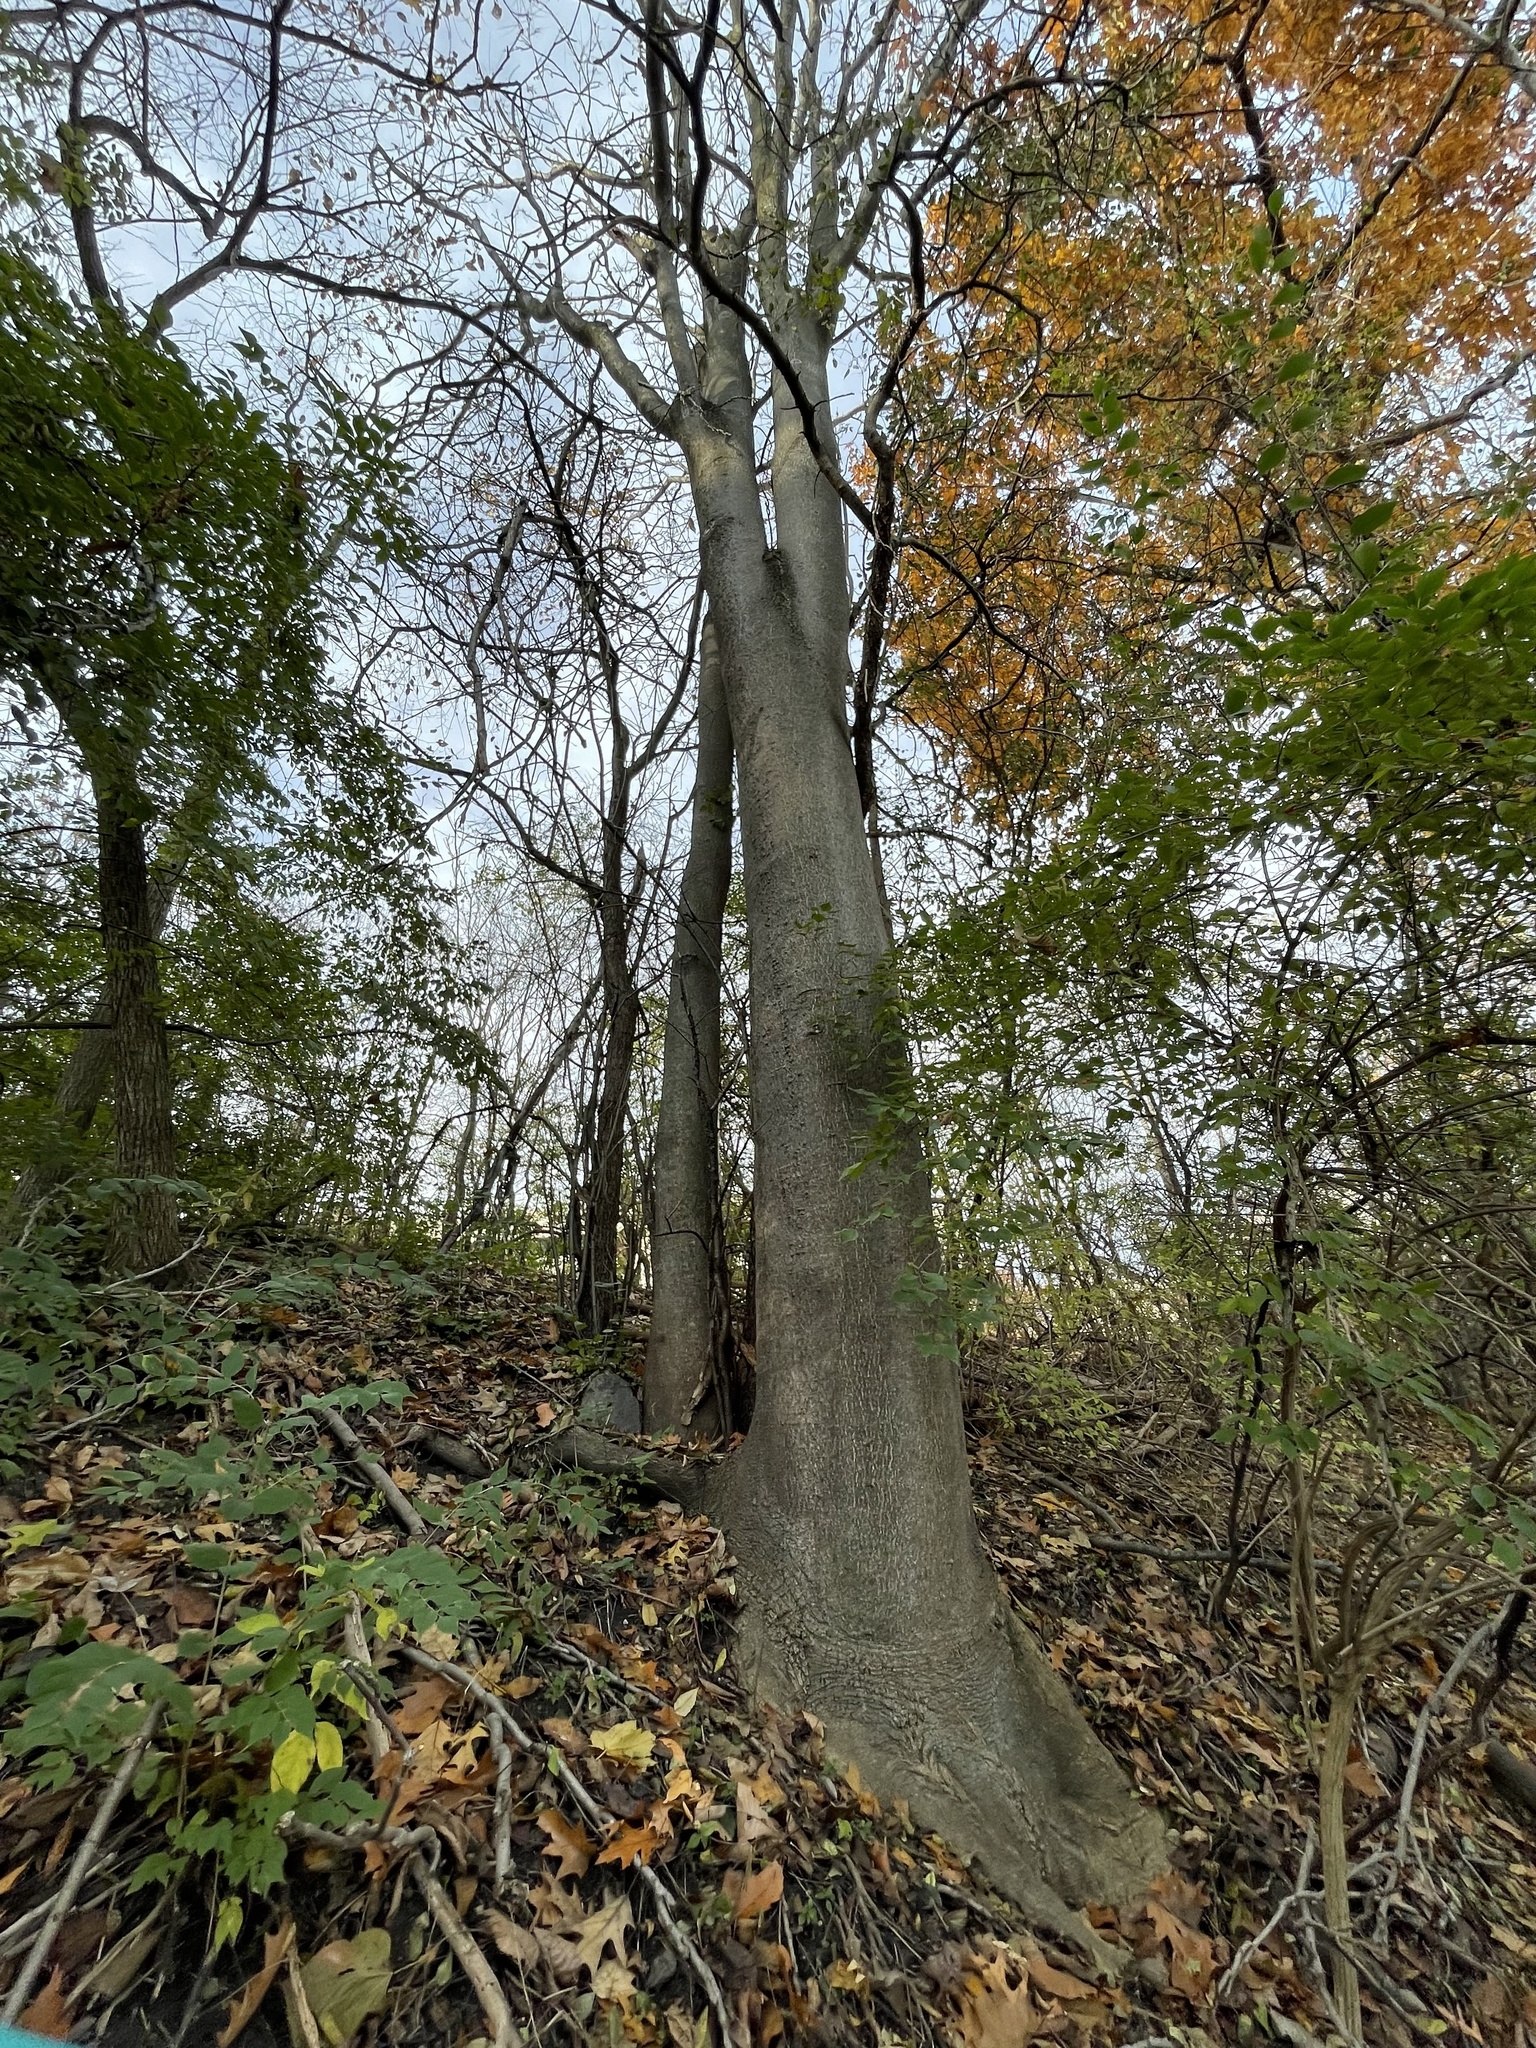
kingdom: Plantae
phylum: Tracheophyta
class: Magnoliopsida
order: Sapindales
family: Simaroubaceae
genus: Ailanthus
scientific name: Ailanthus altissima
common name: Tree-of-heaven
